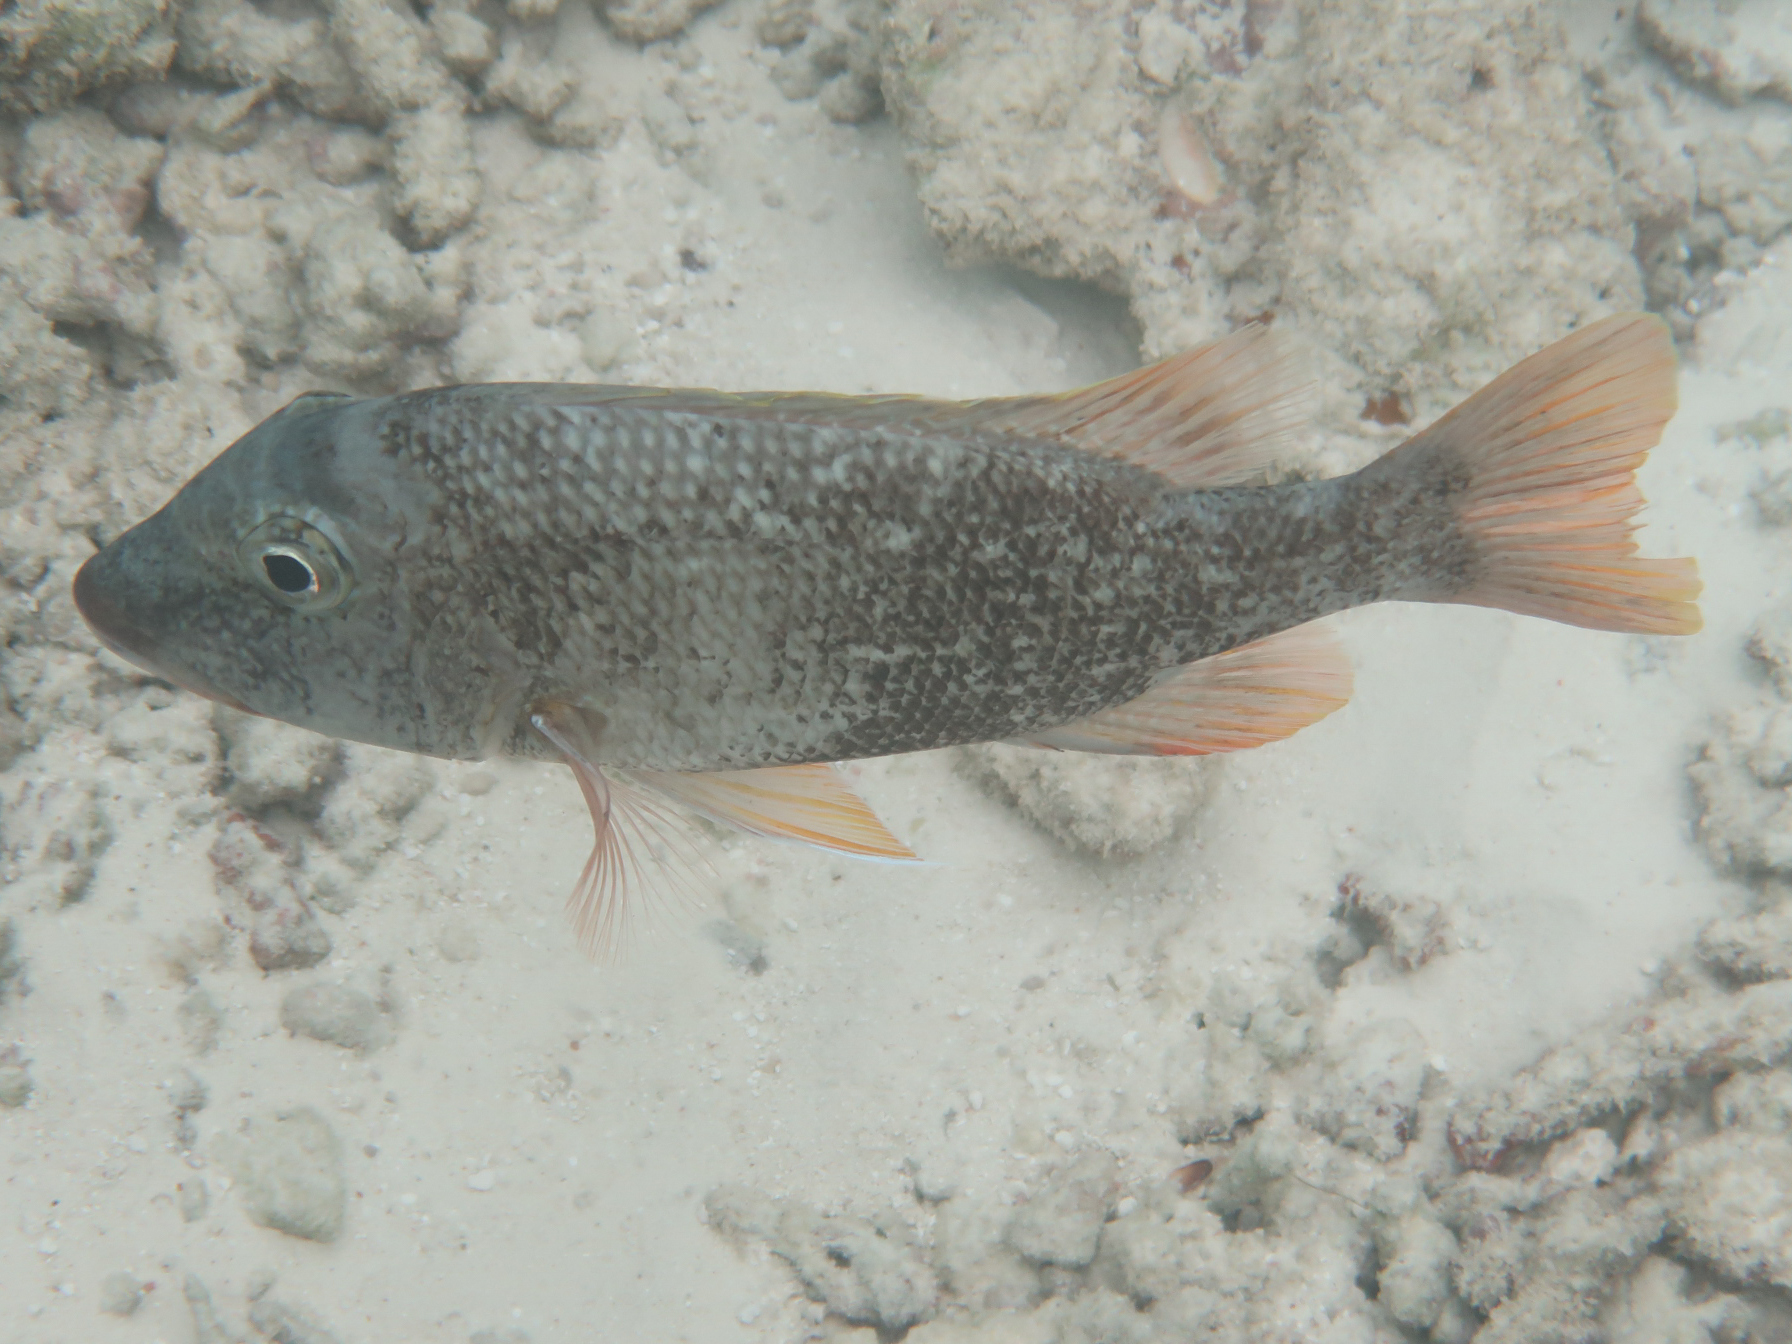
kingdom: Animalia
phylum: Chordata
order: Perciformes
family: Lethrinidae
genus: Lethrinus
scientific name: Lethrinus erythracanthus
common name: Orange-spotted emperor
